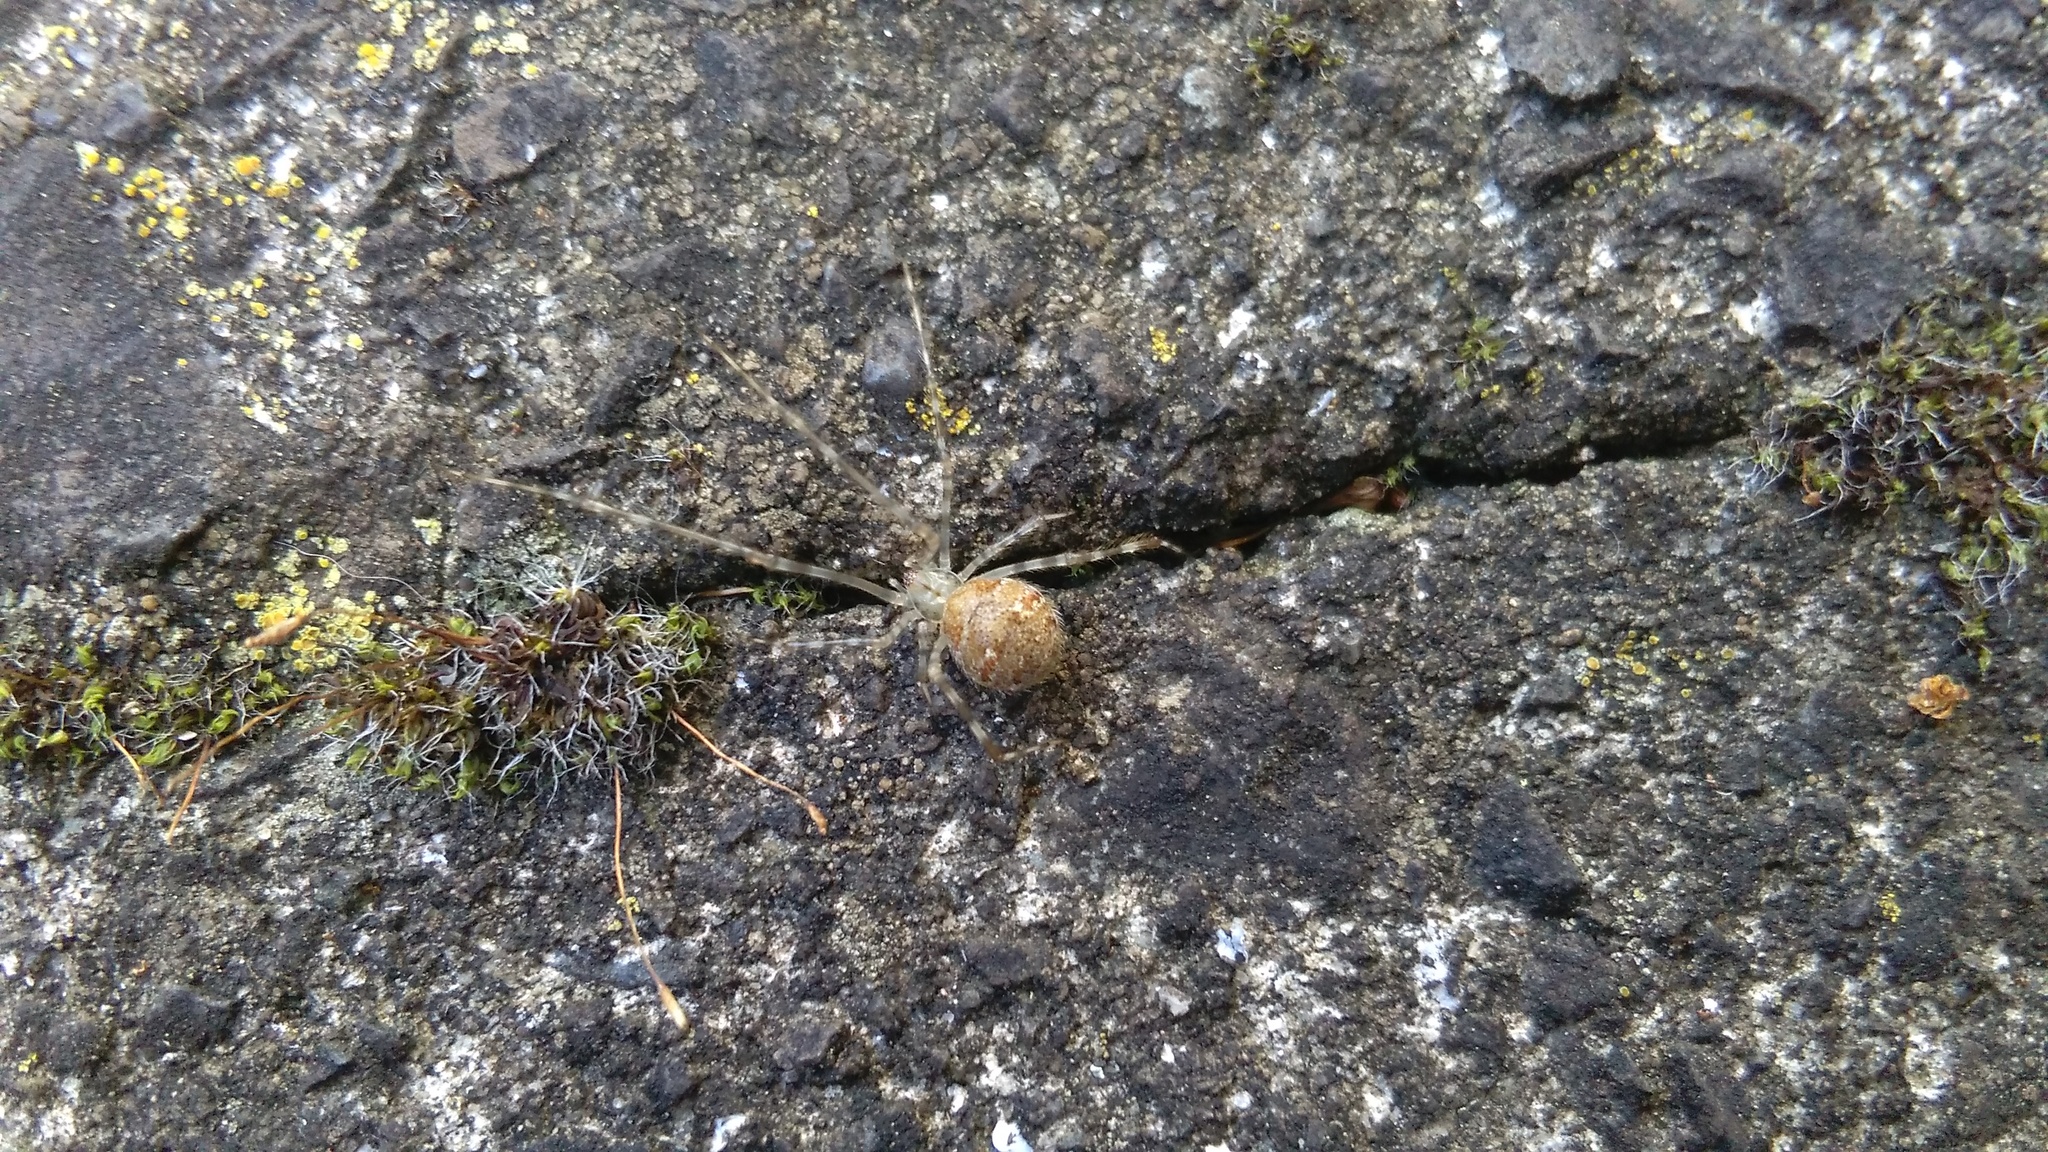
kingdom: Animalia
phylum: Arthropoda
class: Arachnida
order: Araneae
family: Theridiidae
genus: Cryptachaea
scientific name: Cryptachaea gigantipes
